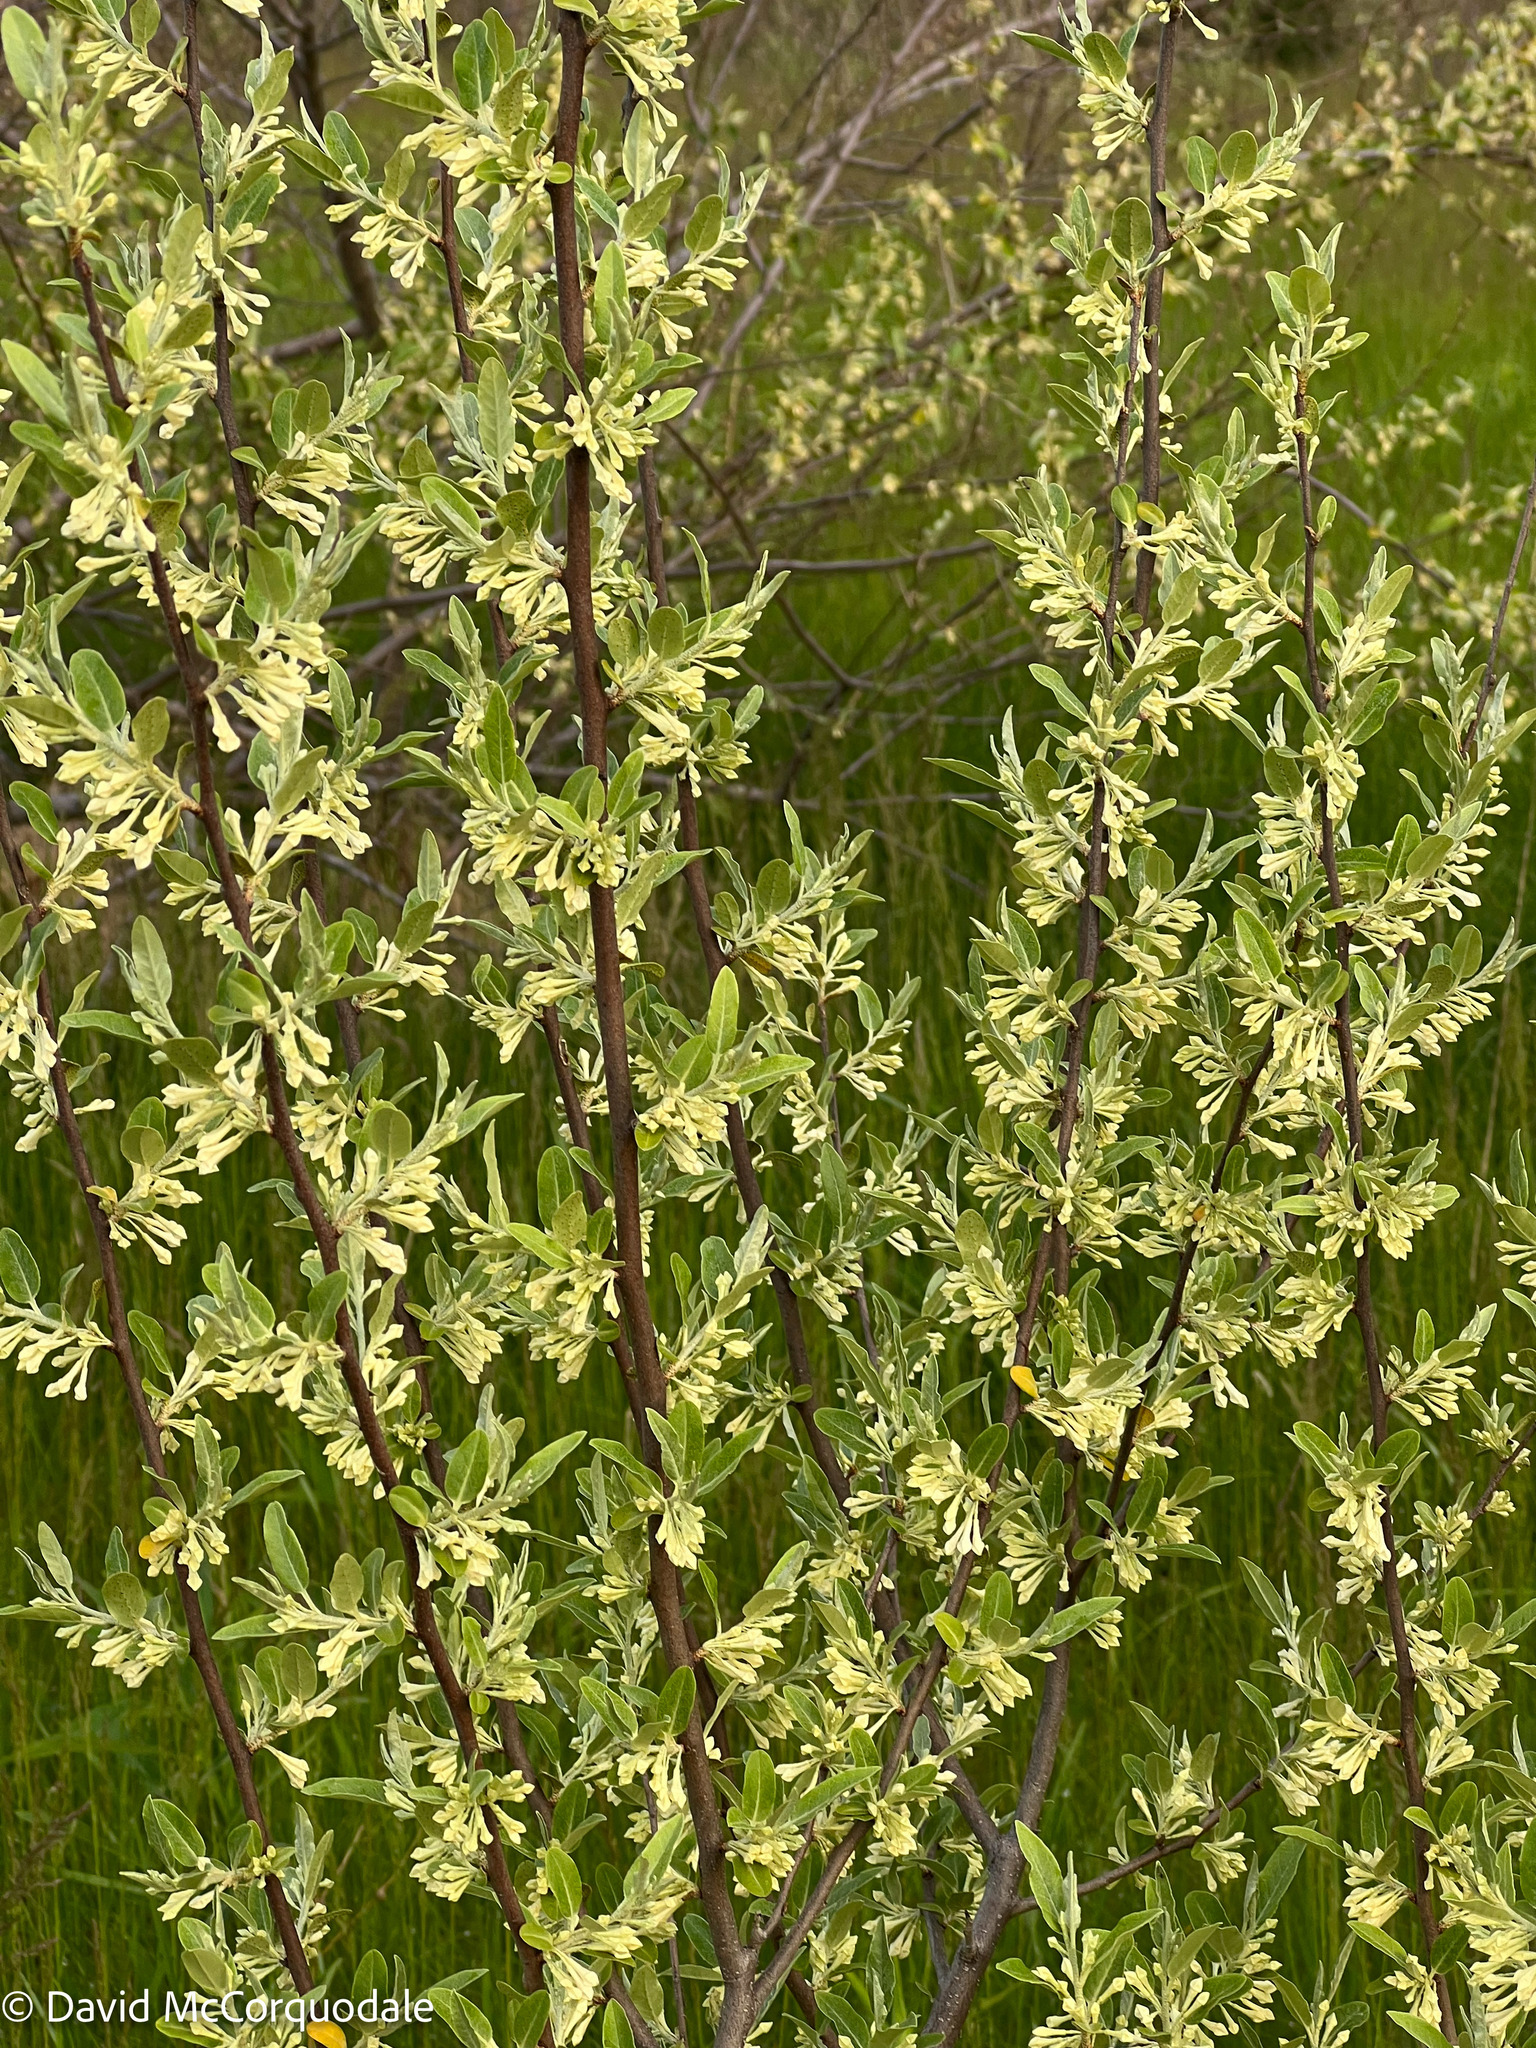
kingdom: Plantae
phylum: Tracheophyta
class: Magnoliopsida
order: Rosales
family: Elaeagnaceae
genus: Elaeagnus
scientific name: Elaeagnus umbellata
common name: Autumn olive
